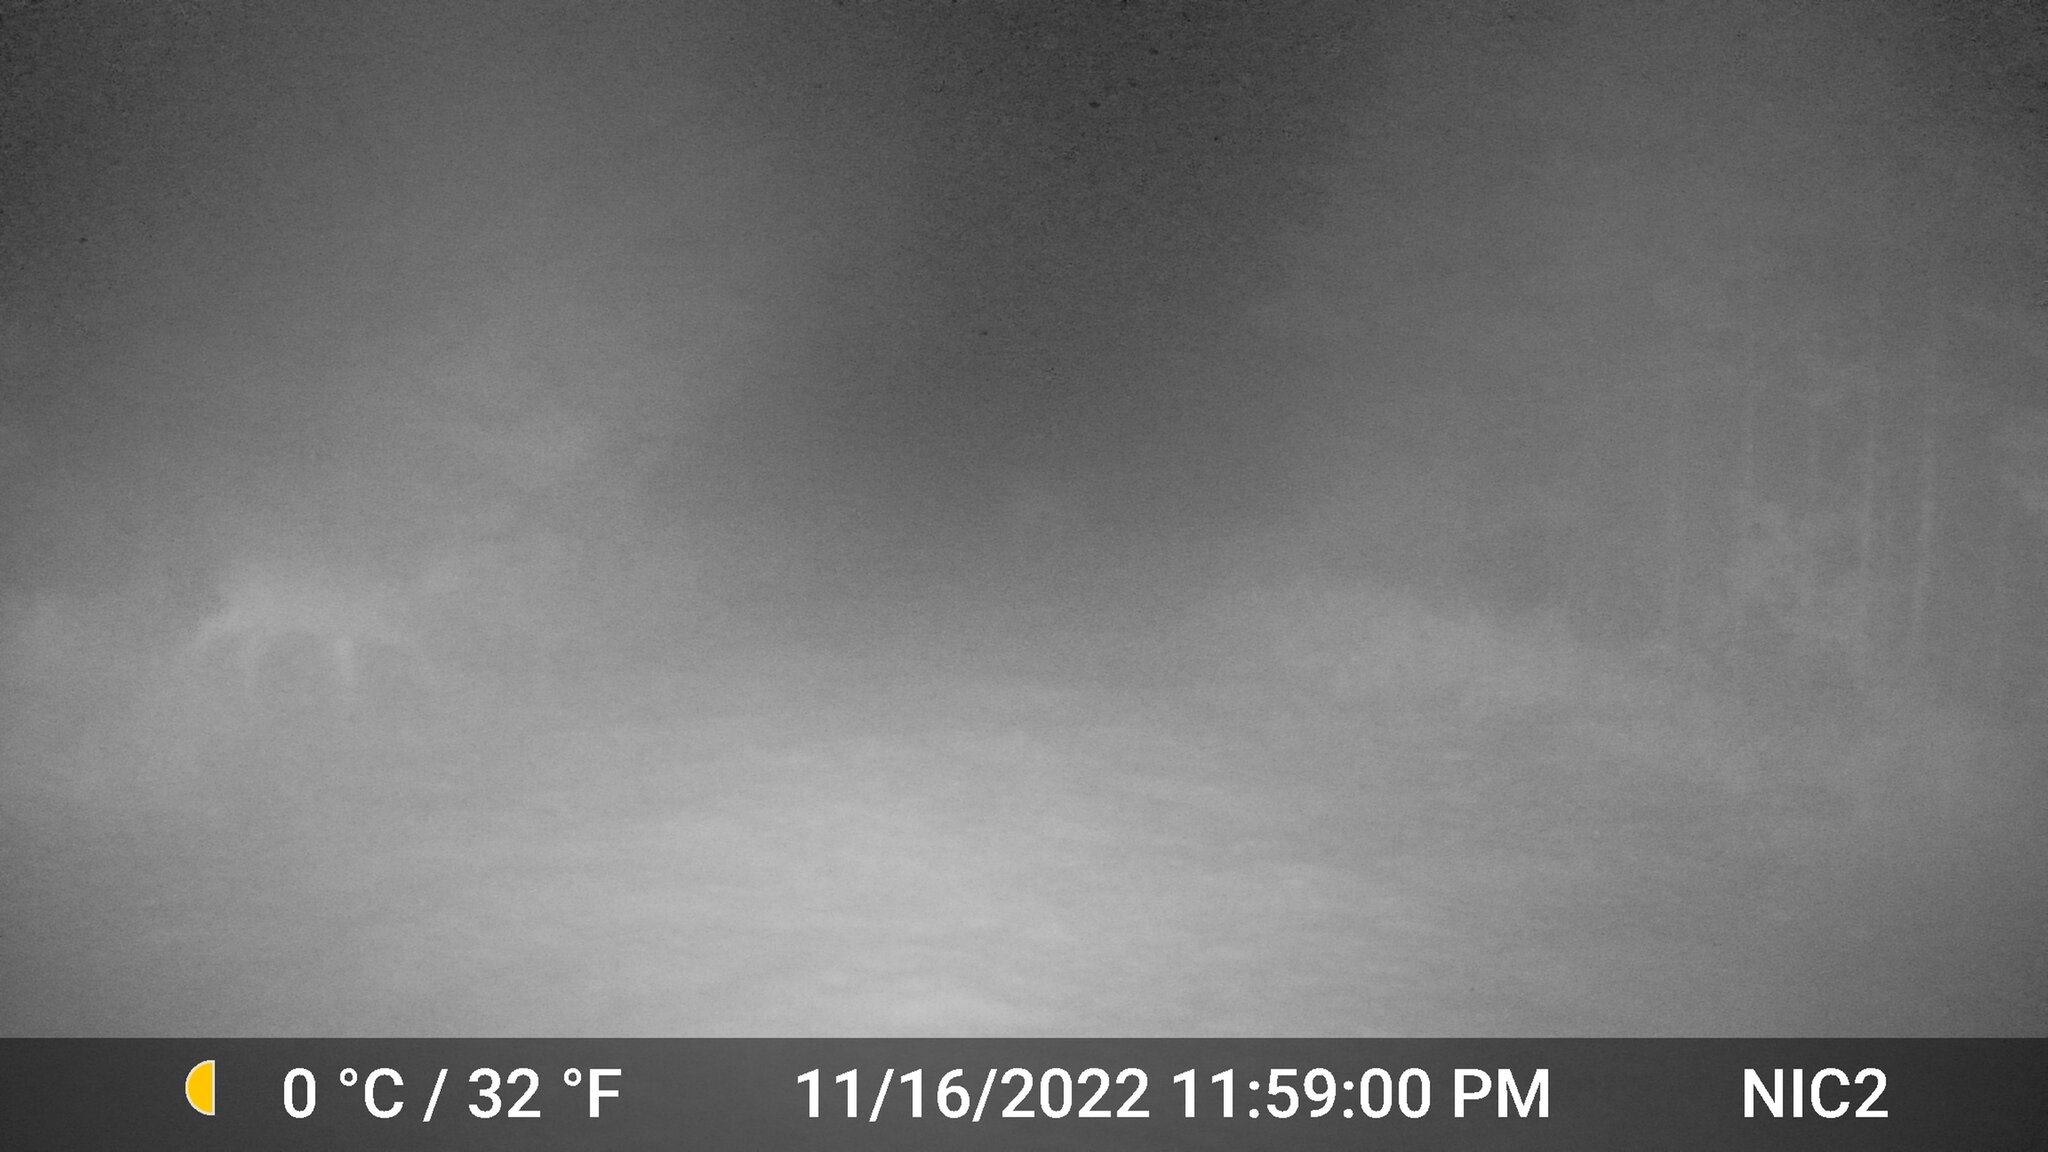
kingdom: Animalia
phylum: Chordata
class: Mammalia
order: Artiodactyla
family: Cervidae
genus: Odocoileus
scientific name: Odocoileus virginianus
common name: White-tailed deer
